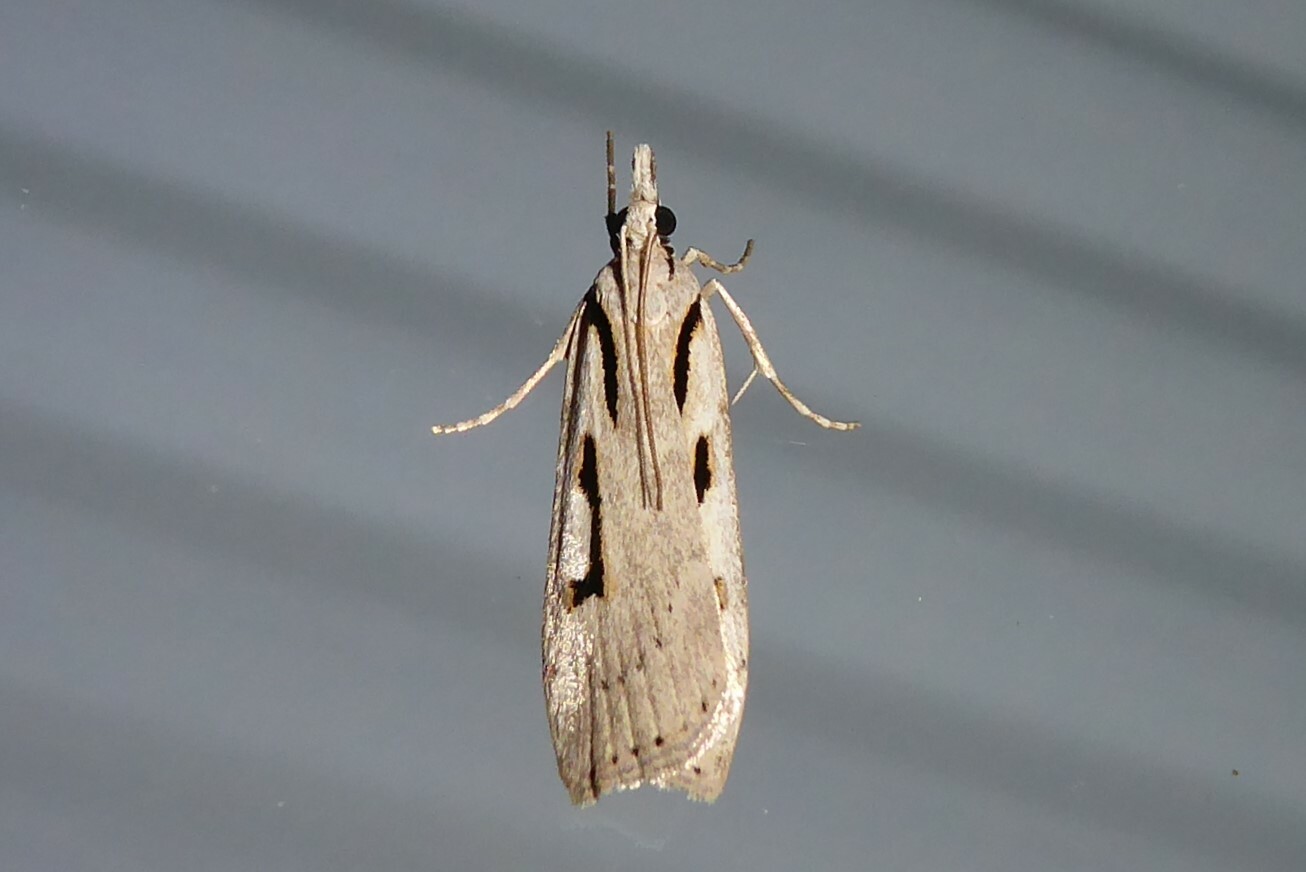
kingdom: Animalia
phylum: Arthropoda
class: Insecta
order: Lepidoptera
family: Crambidae
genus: Scoparia
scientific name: Scoparia rotuellus
